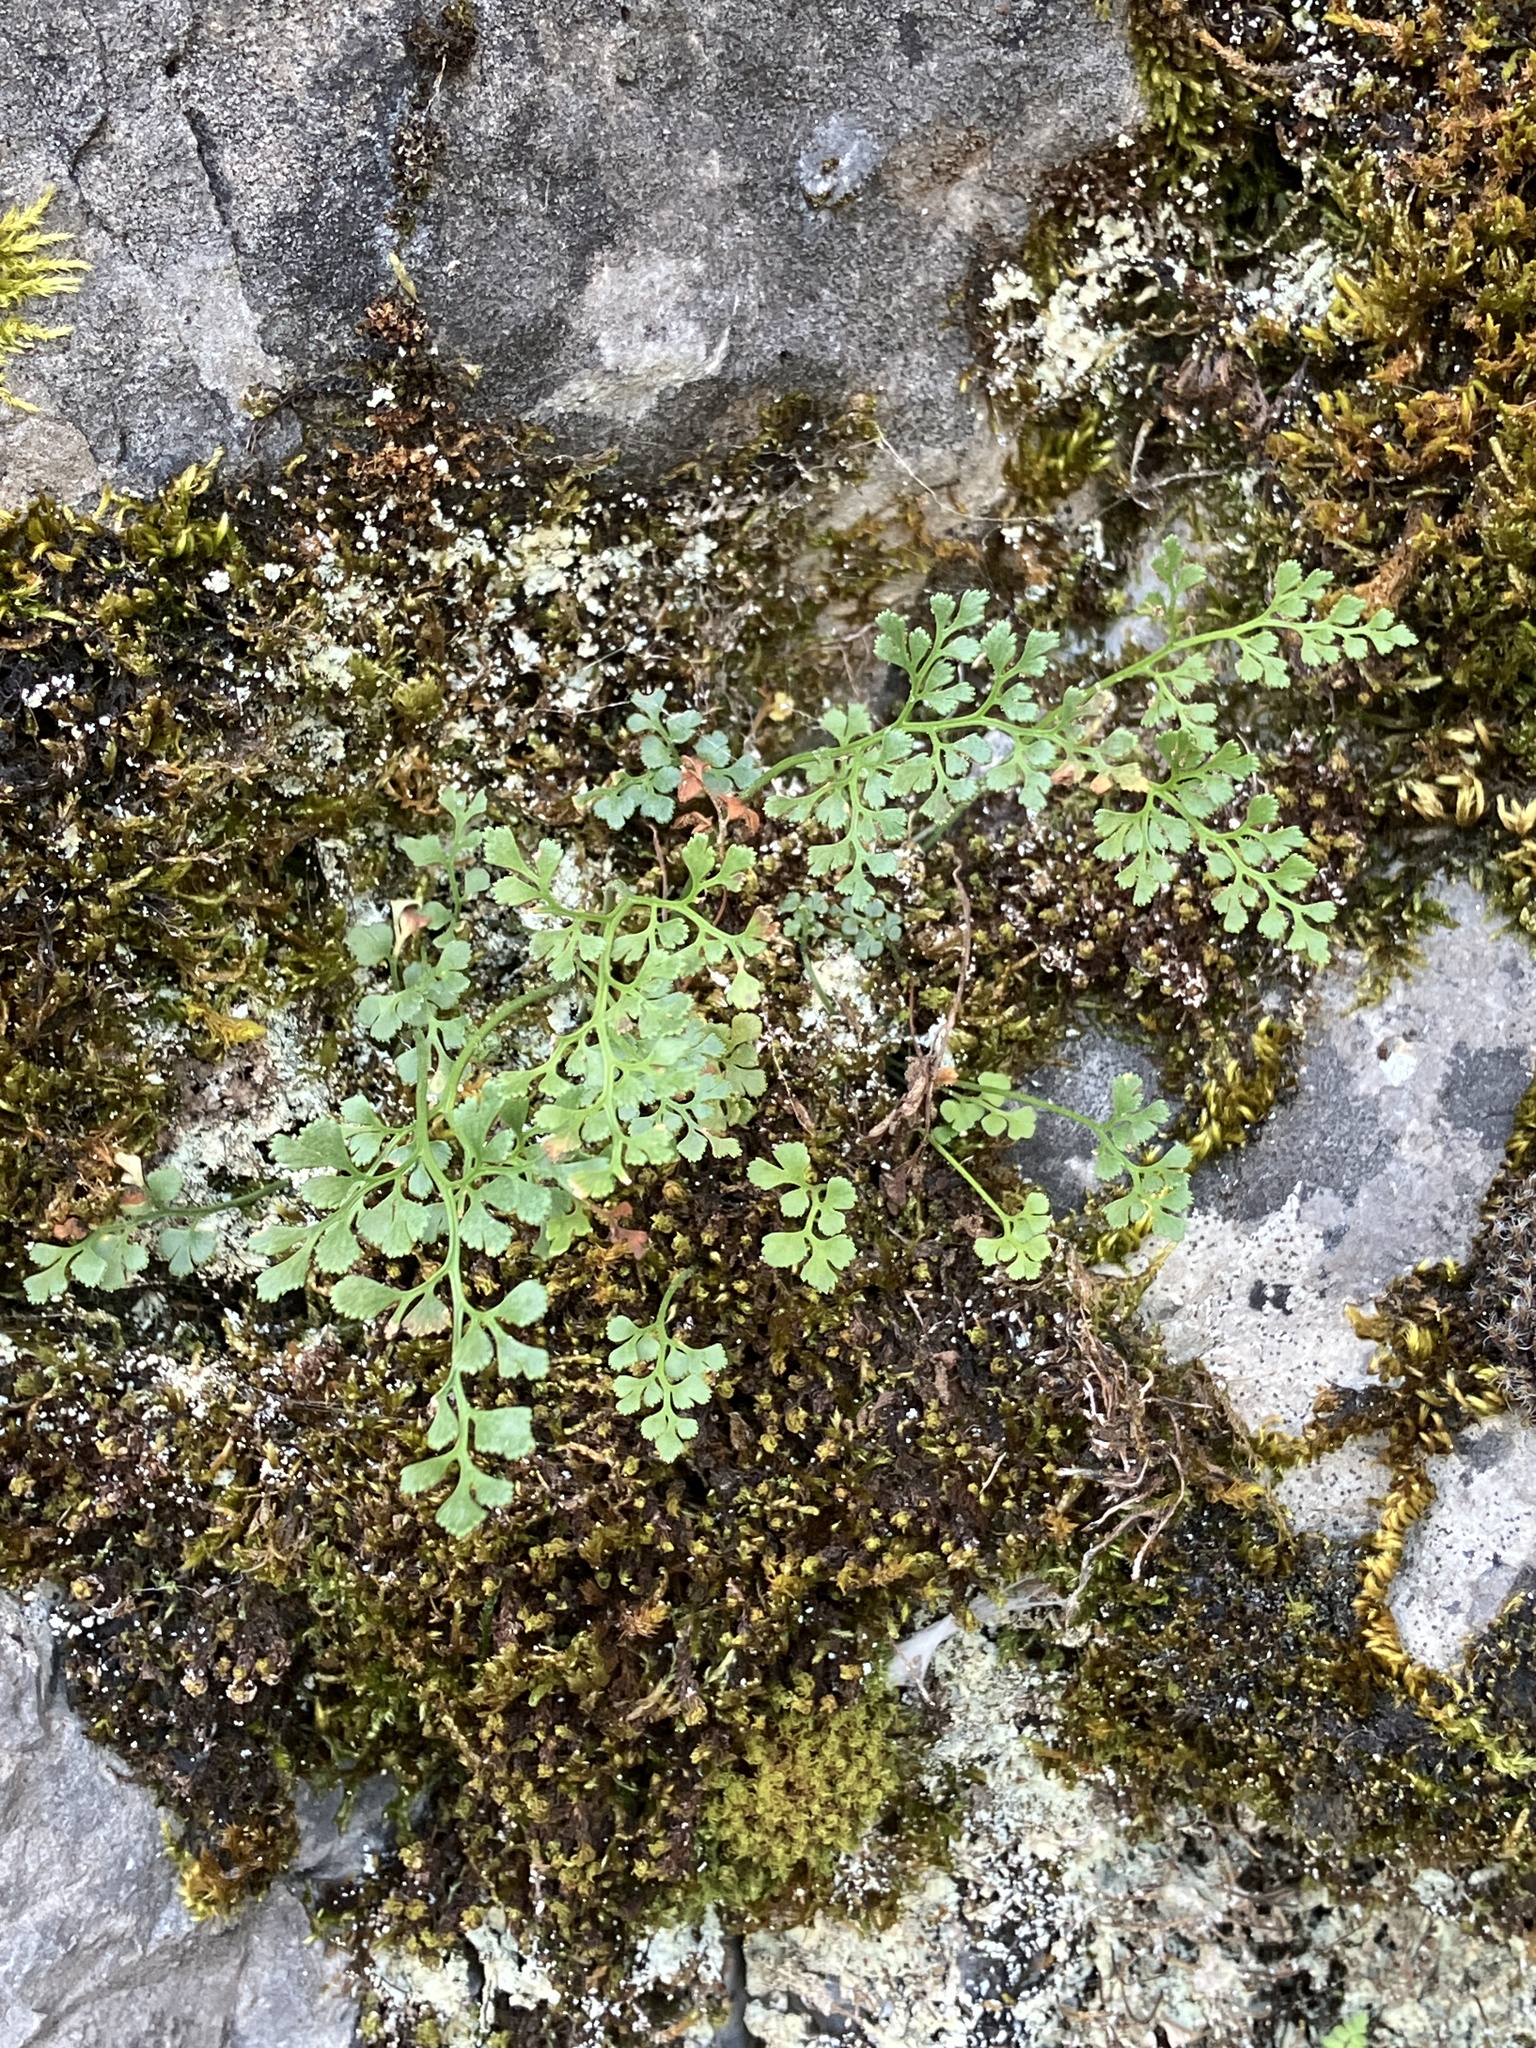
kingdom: Plantae
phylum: Tracheophyta
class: Polypodiopsida
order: Polypodiales
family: Aspleniaceae
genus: Asplenium
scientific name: Asplenium ruta-muraria
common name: Wall-rue
